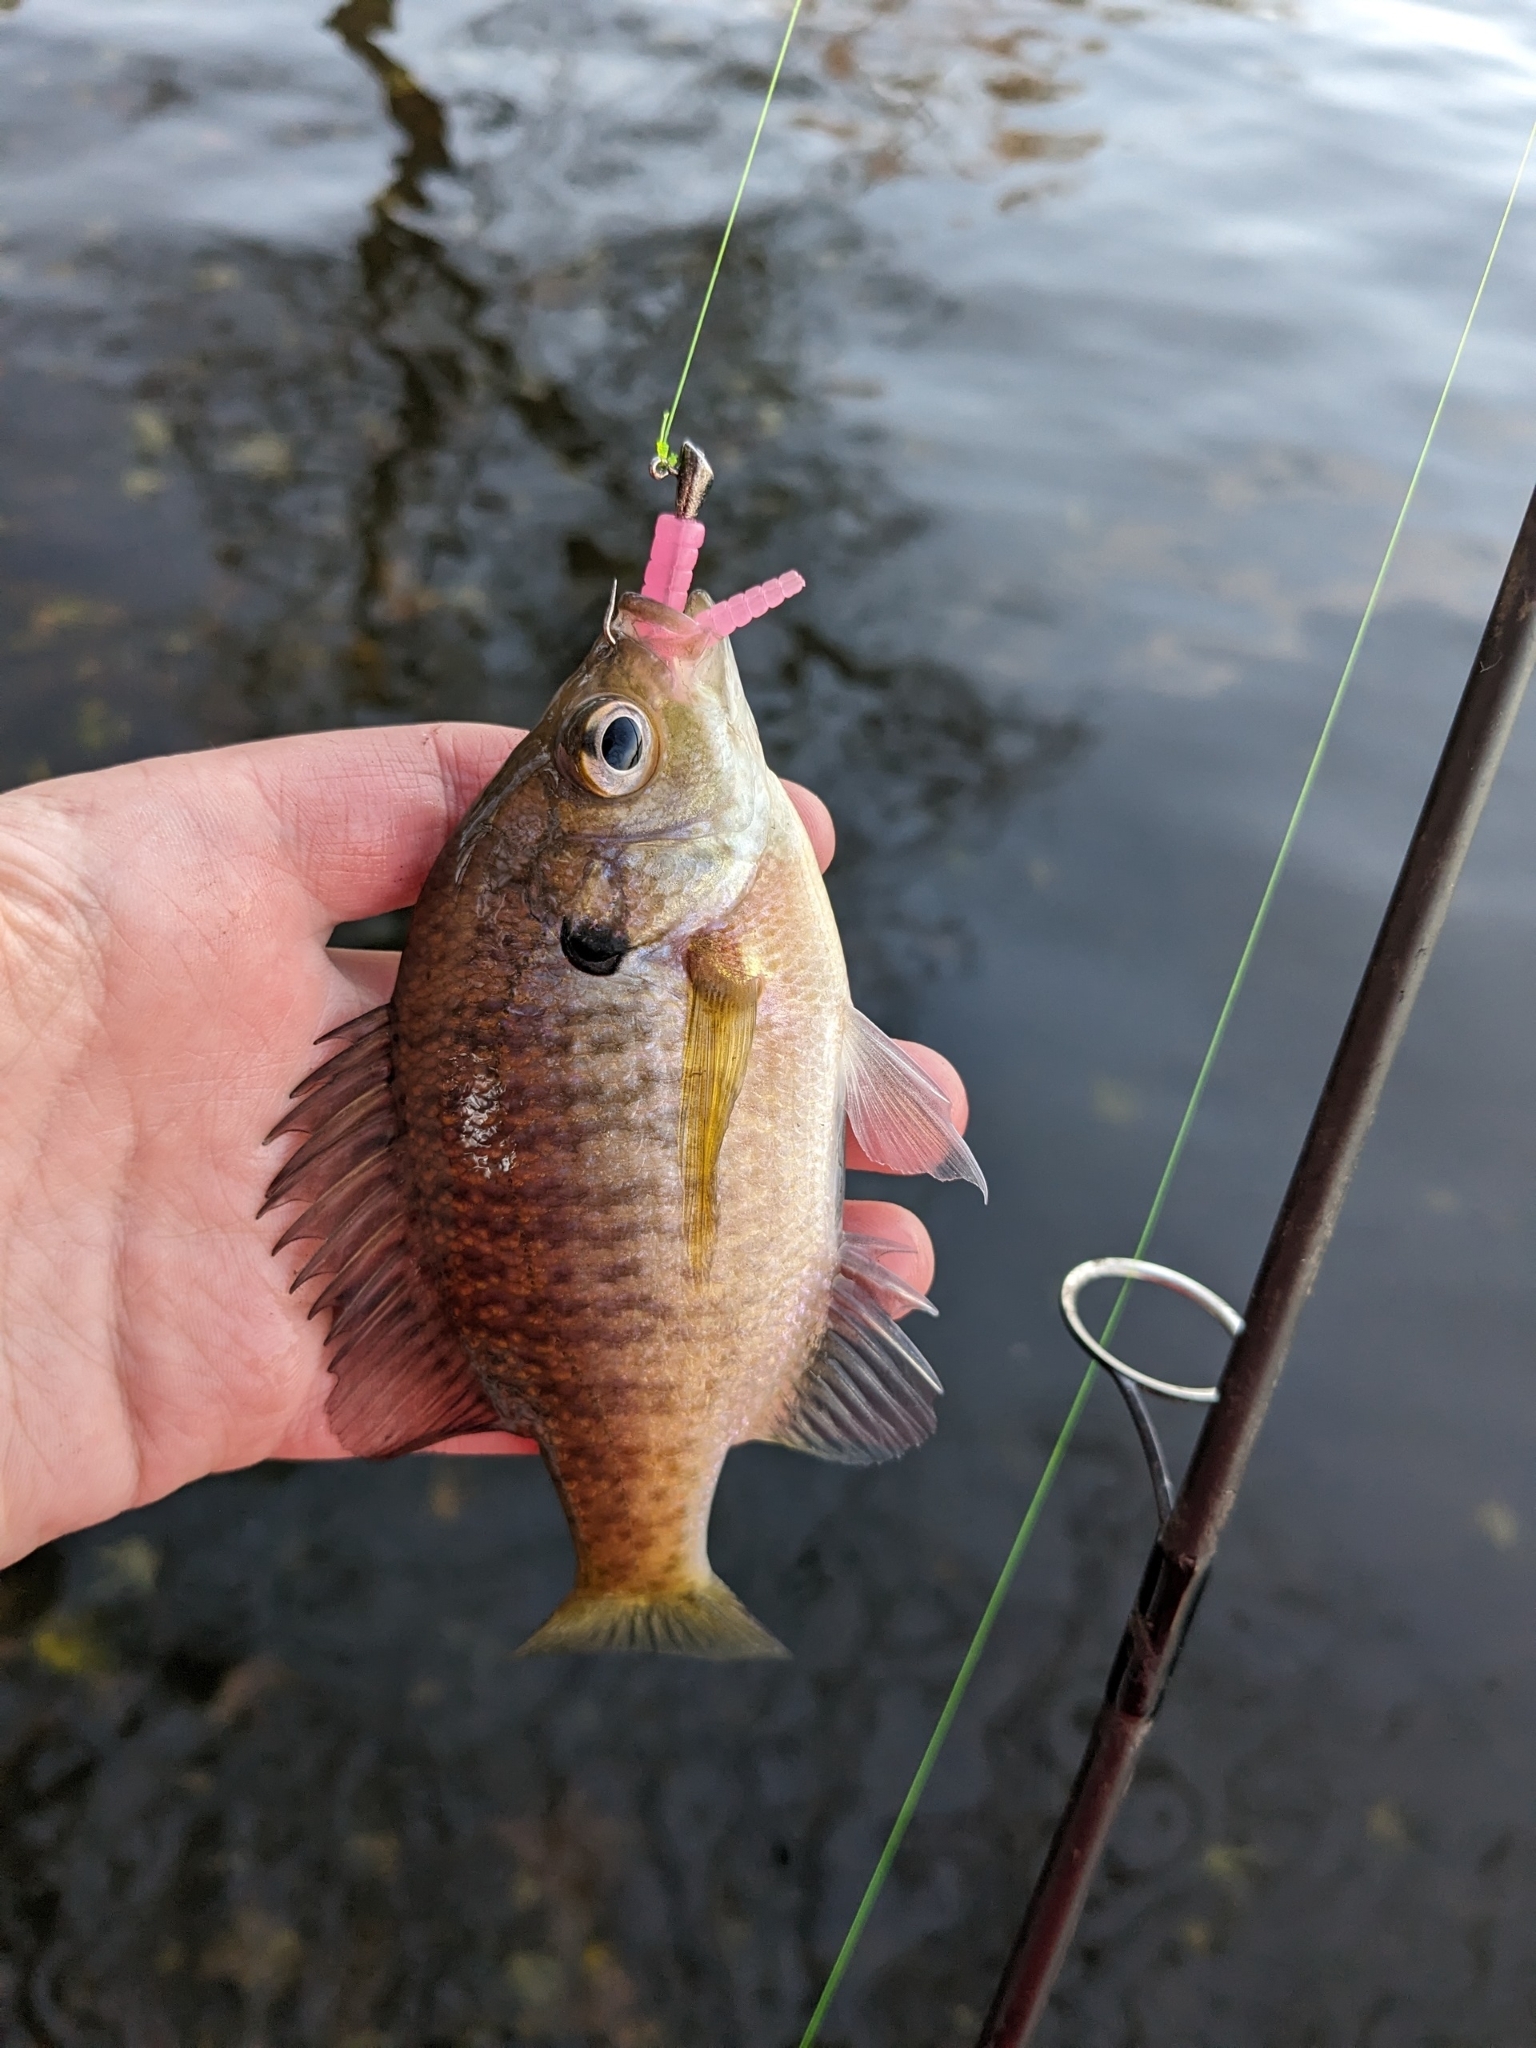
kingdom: Animalia
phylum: Chordata
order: Perciformes
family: Centrarchidae
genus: Lepomis
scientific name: Lepomis macrochirus
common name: Bluegill
